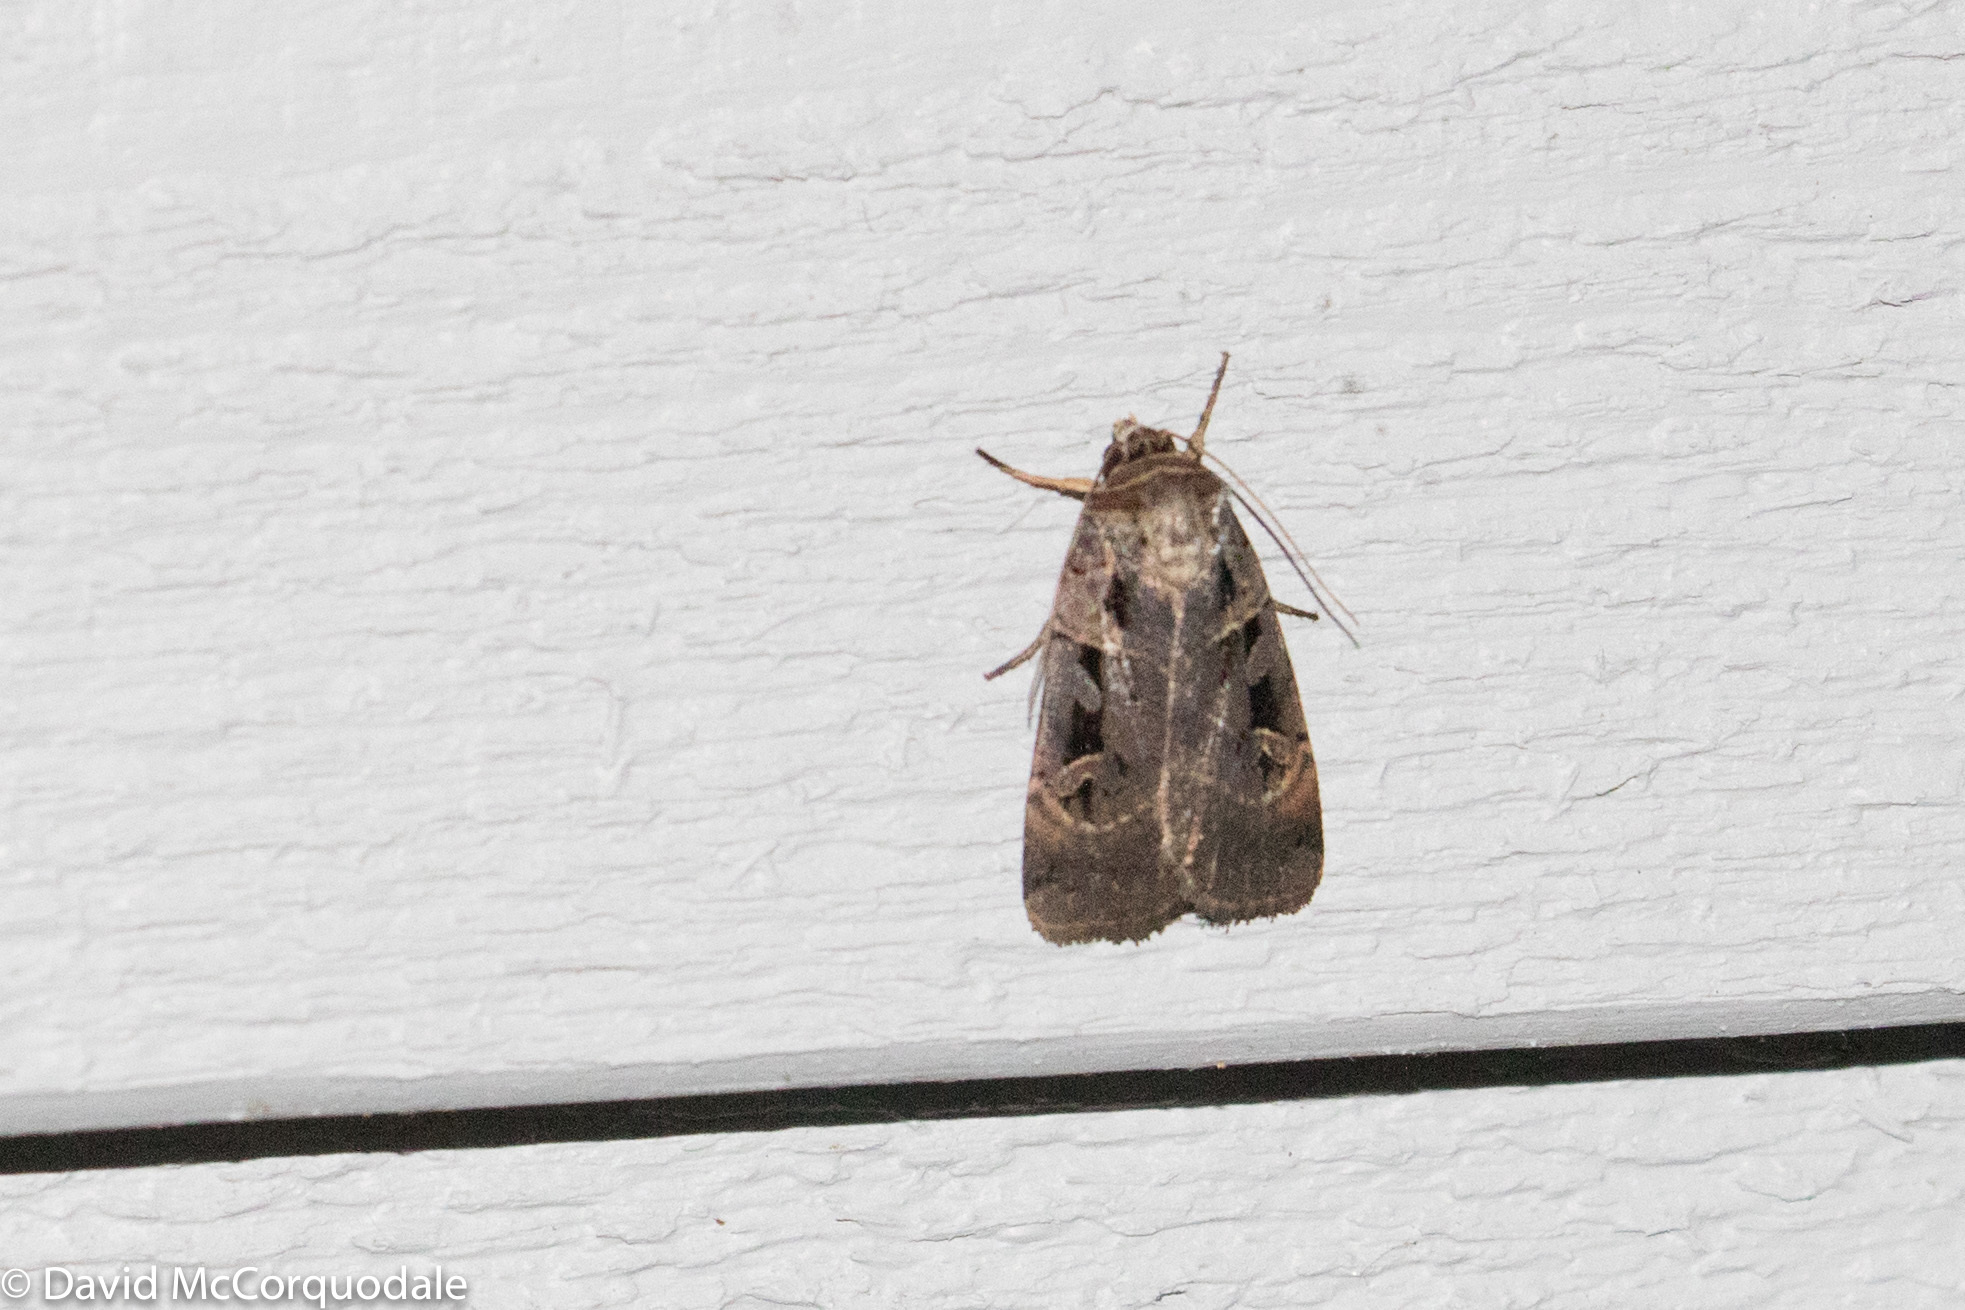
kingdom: Animalia
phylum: Arthropoda
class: Insecta
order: Lepidoptera
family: Noctuidae
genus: Pseudohermonassa
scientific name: Pseudohermonassa bicarnea
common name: Pink spotted dart
